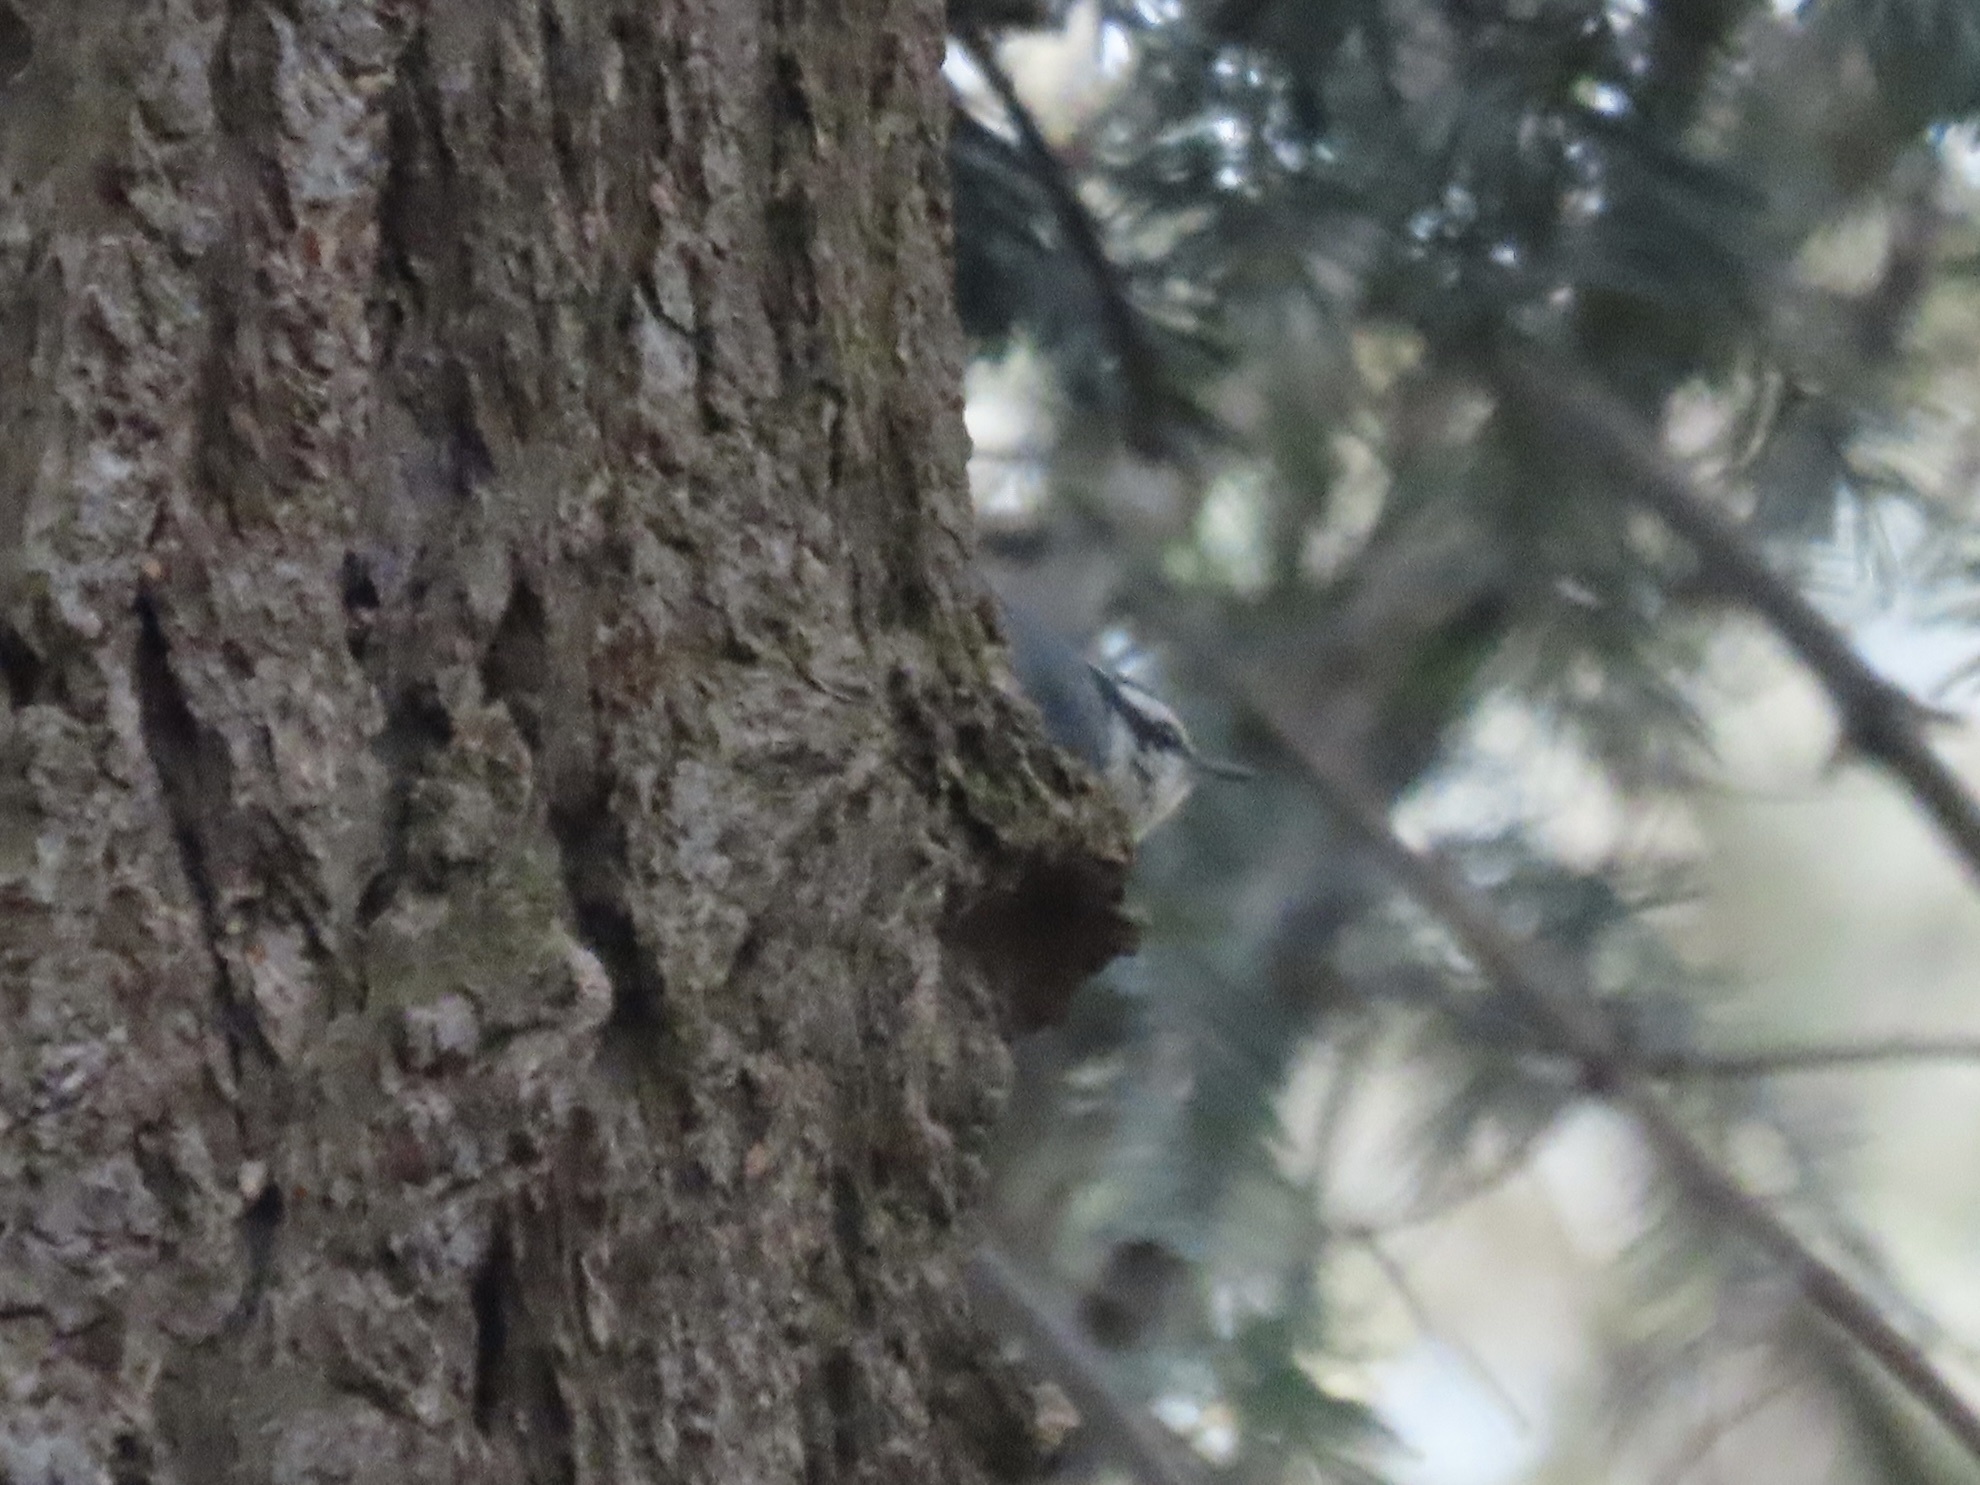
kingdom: Animalia
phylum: Chordata
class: Aves
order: Passeriformes
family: Sittidae
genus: Sitta
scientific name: Sitta canadensis
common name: Red-breasted nuthatch
